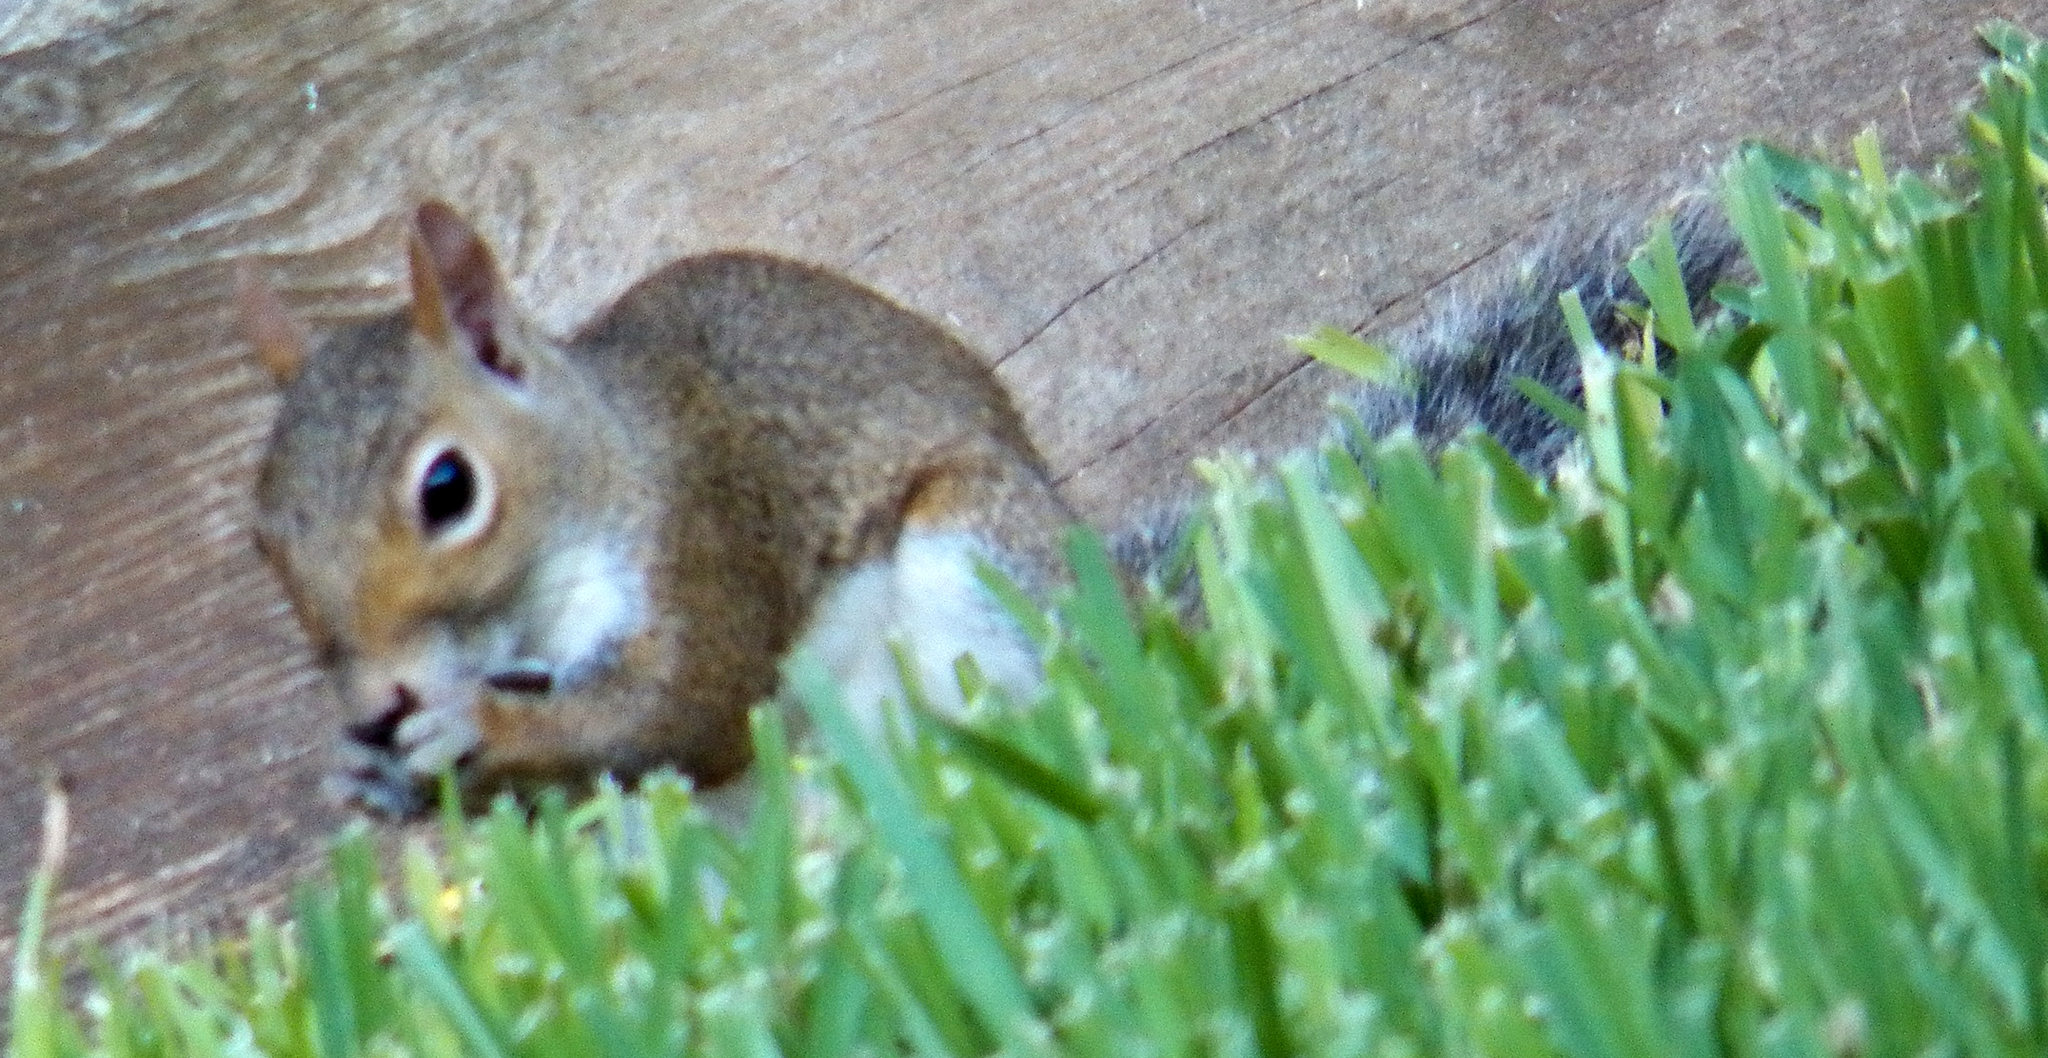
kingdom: Animalia
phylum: Chordata
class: Mammalia
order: Rodentia
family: Sciuridae
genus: Sciurus
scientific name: Sciurus carolinensis
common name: Eastern gray squirrel
